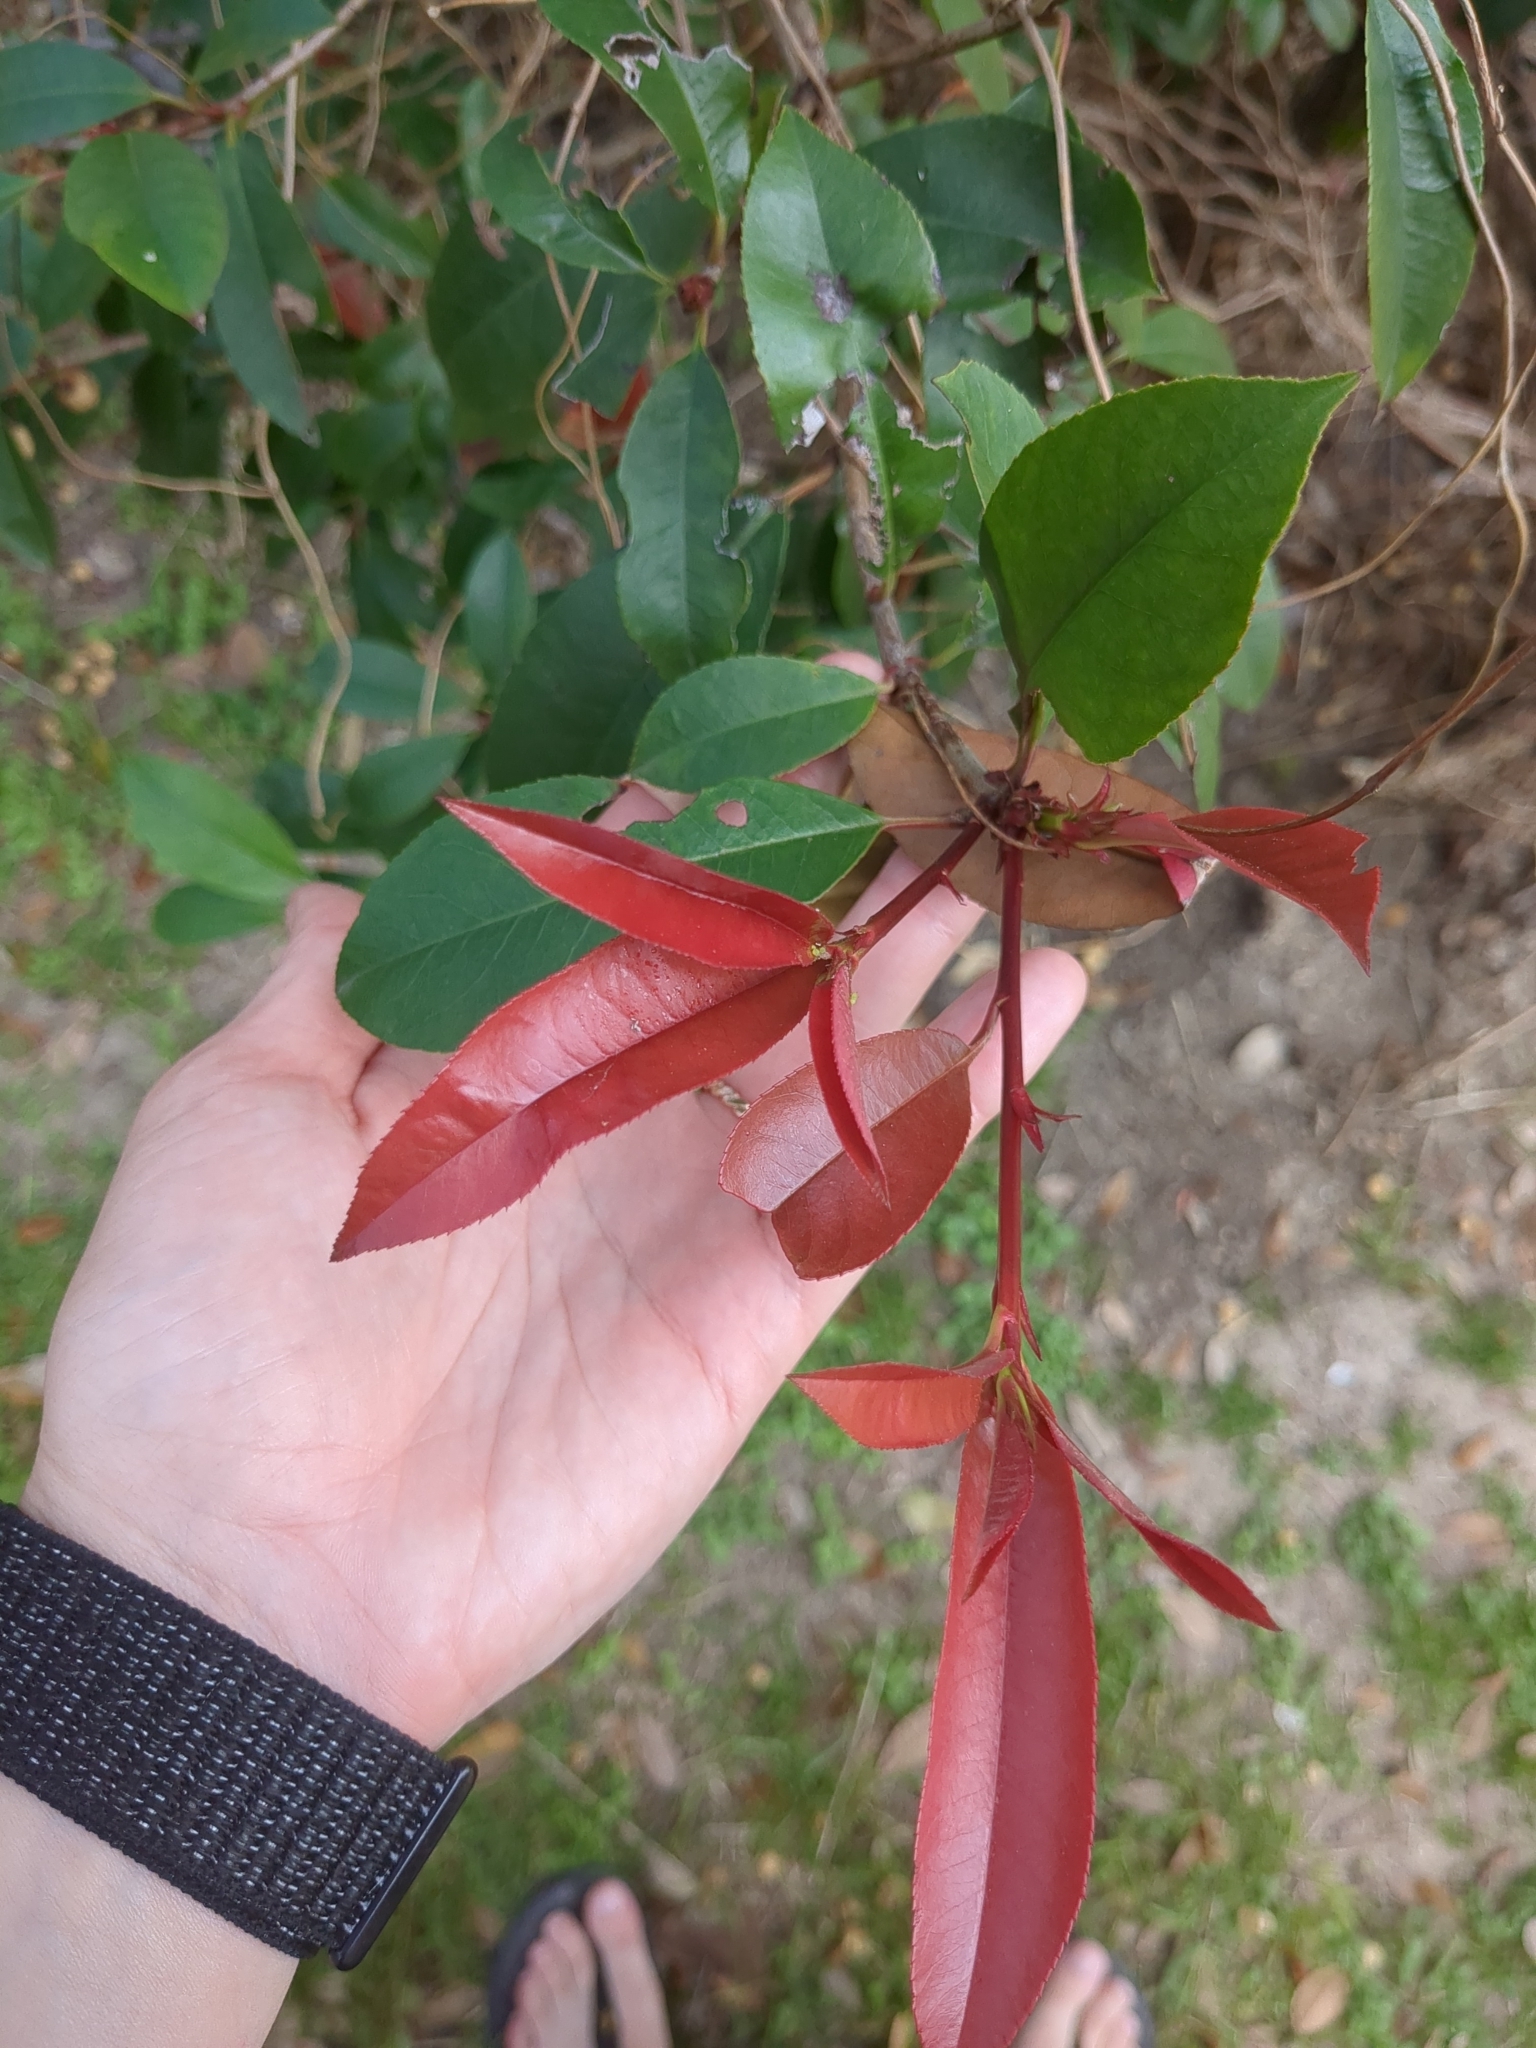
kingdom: Plantae
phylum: Tracheophyta
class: Magnoliopsida
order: Rosales
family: Rosaceae
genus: Photinia
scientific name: Photinia serratifolia
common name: Taiwanese photinia
